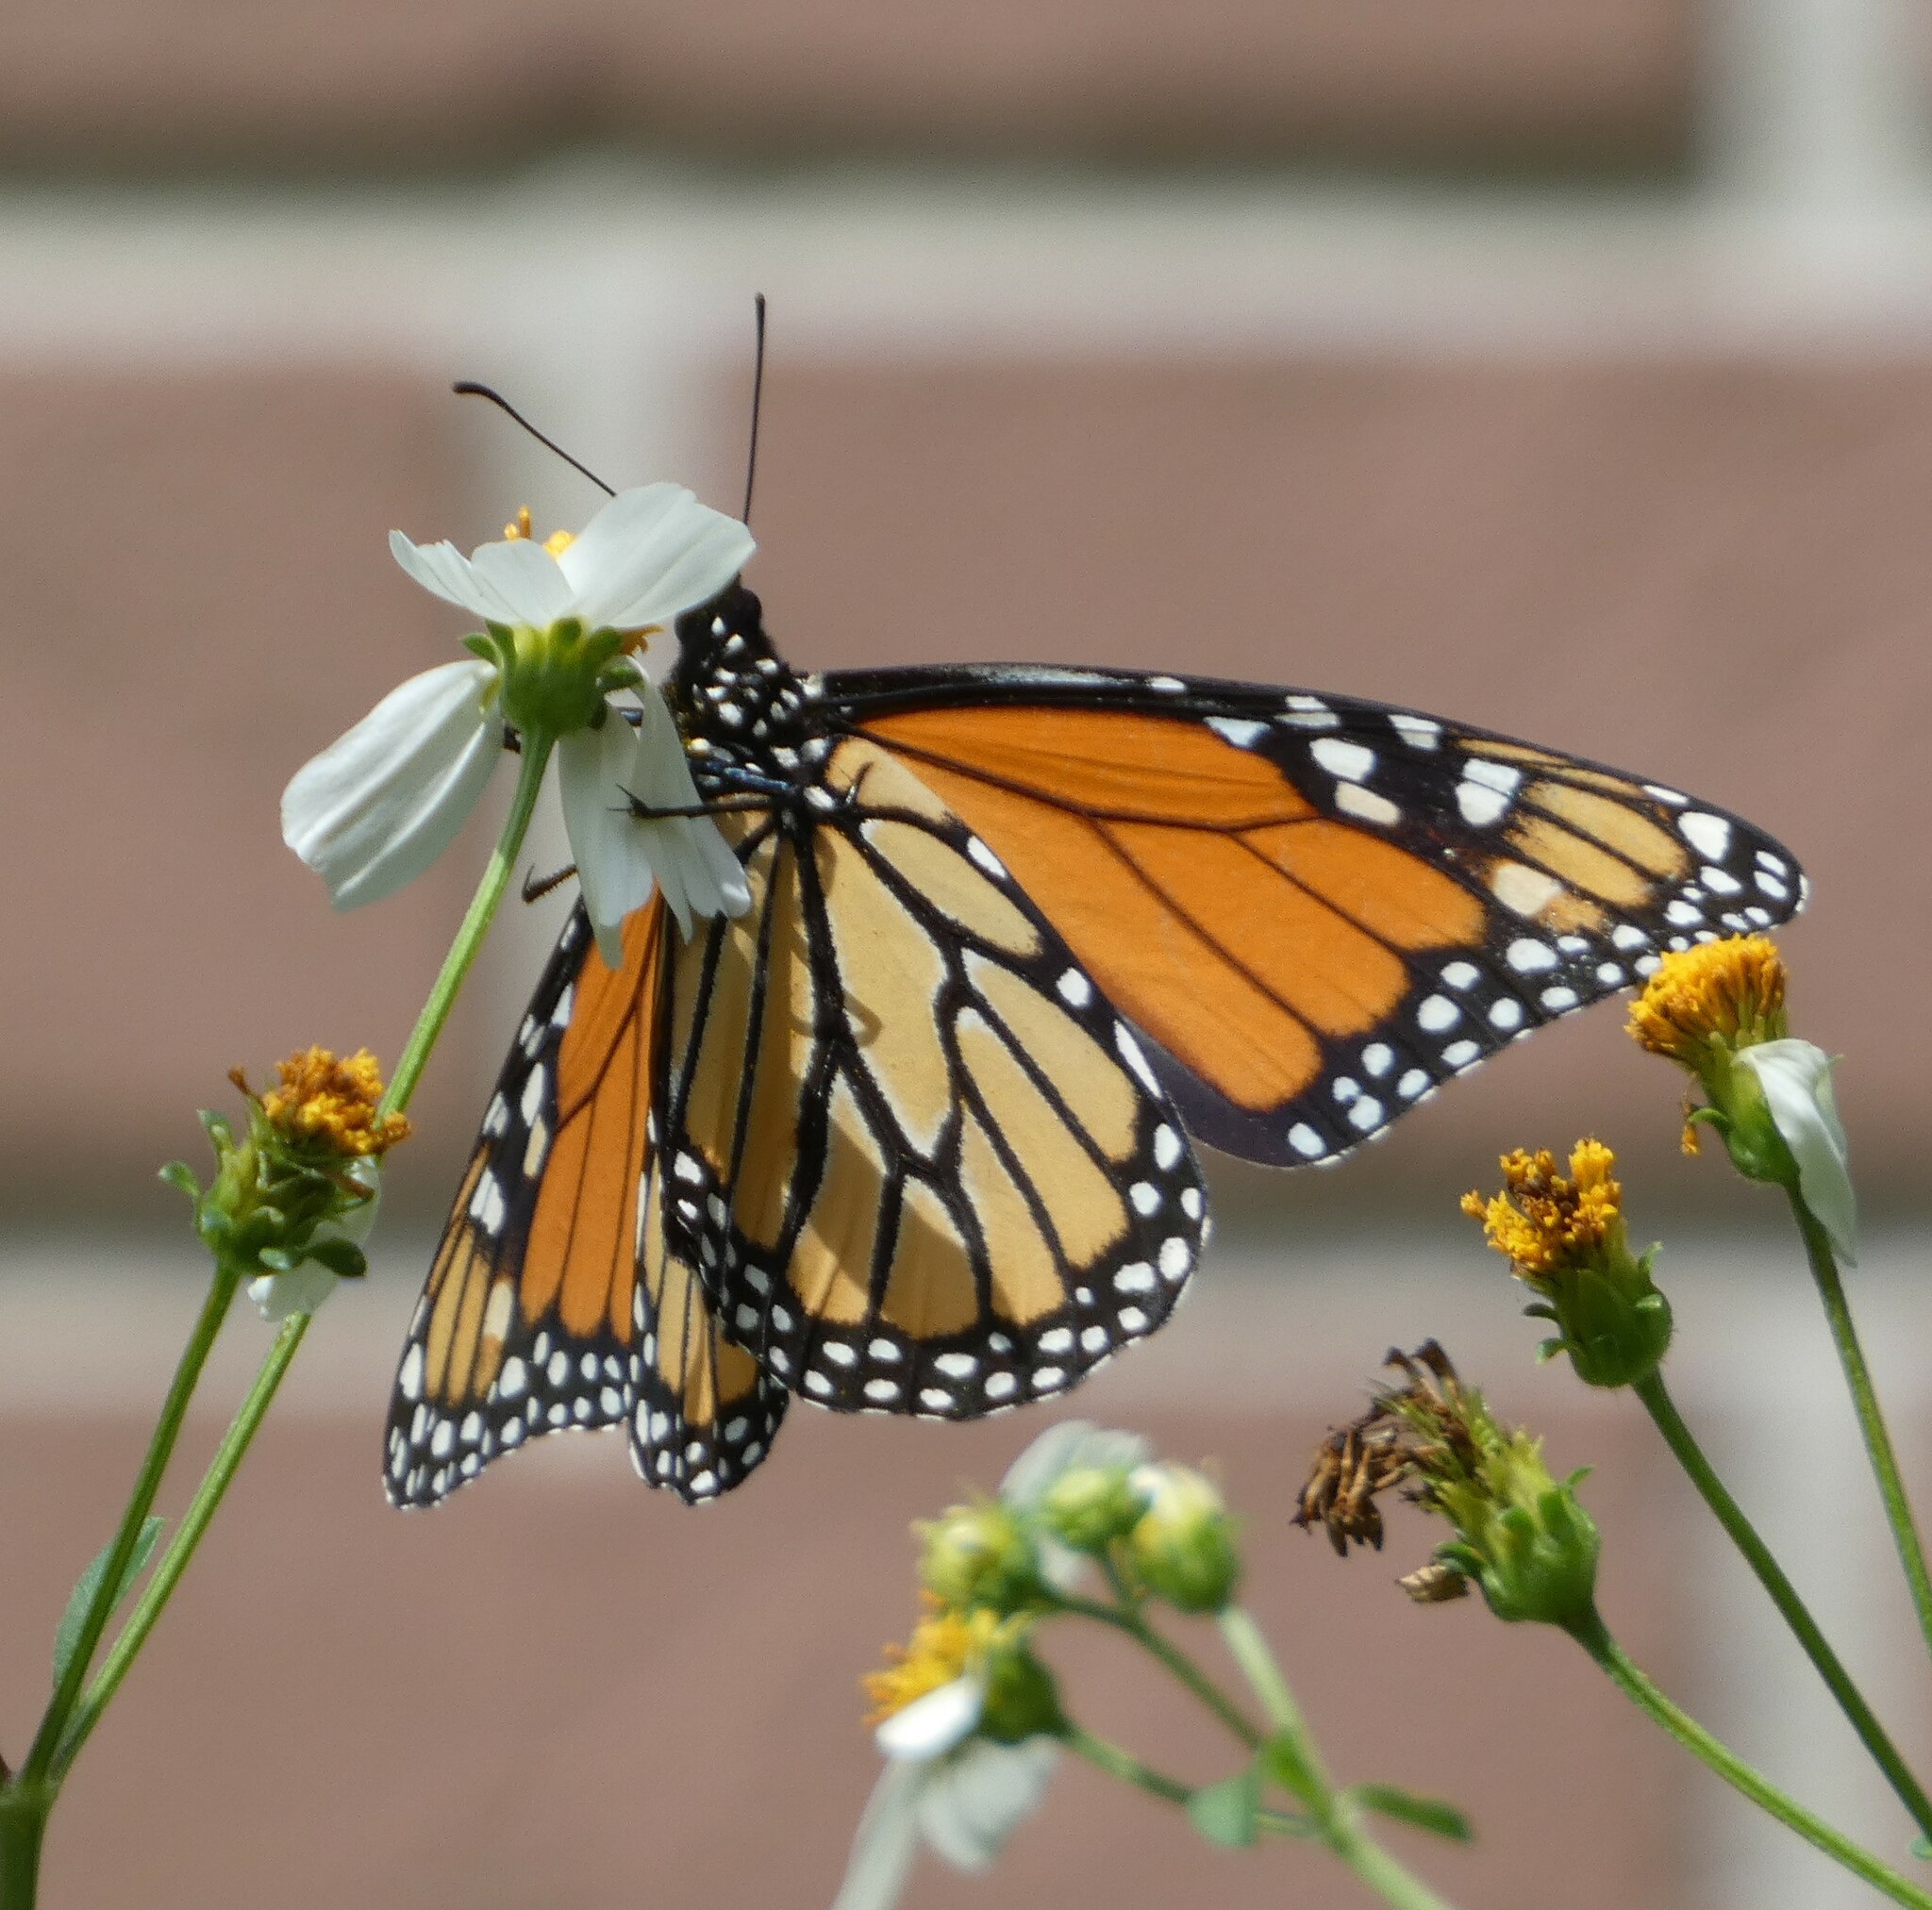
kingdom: Animalia
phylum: Arthropoda
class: Insecta
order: Lepidoptera
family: Nymphalidae
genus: Danaus
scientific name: Danaus plexippus
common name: Monarch
